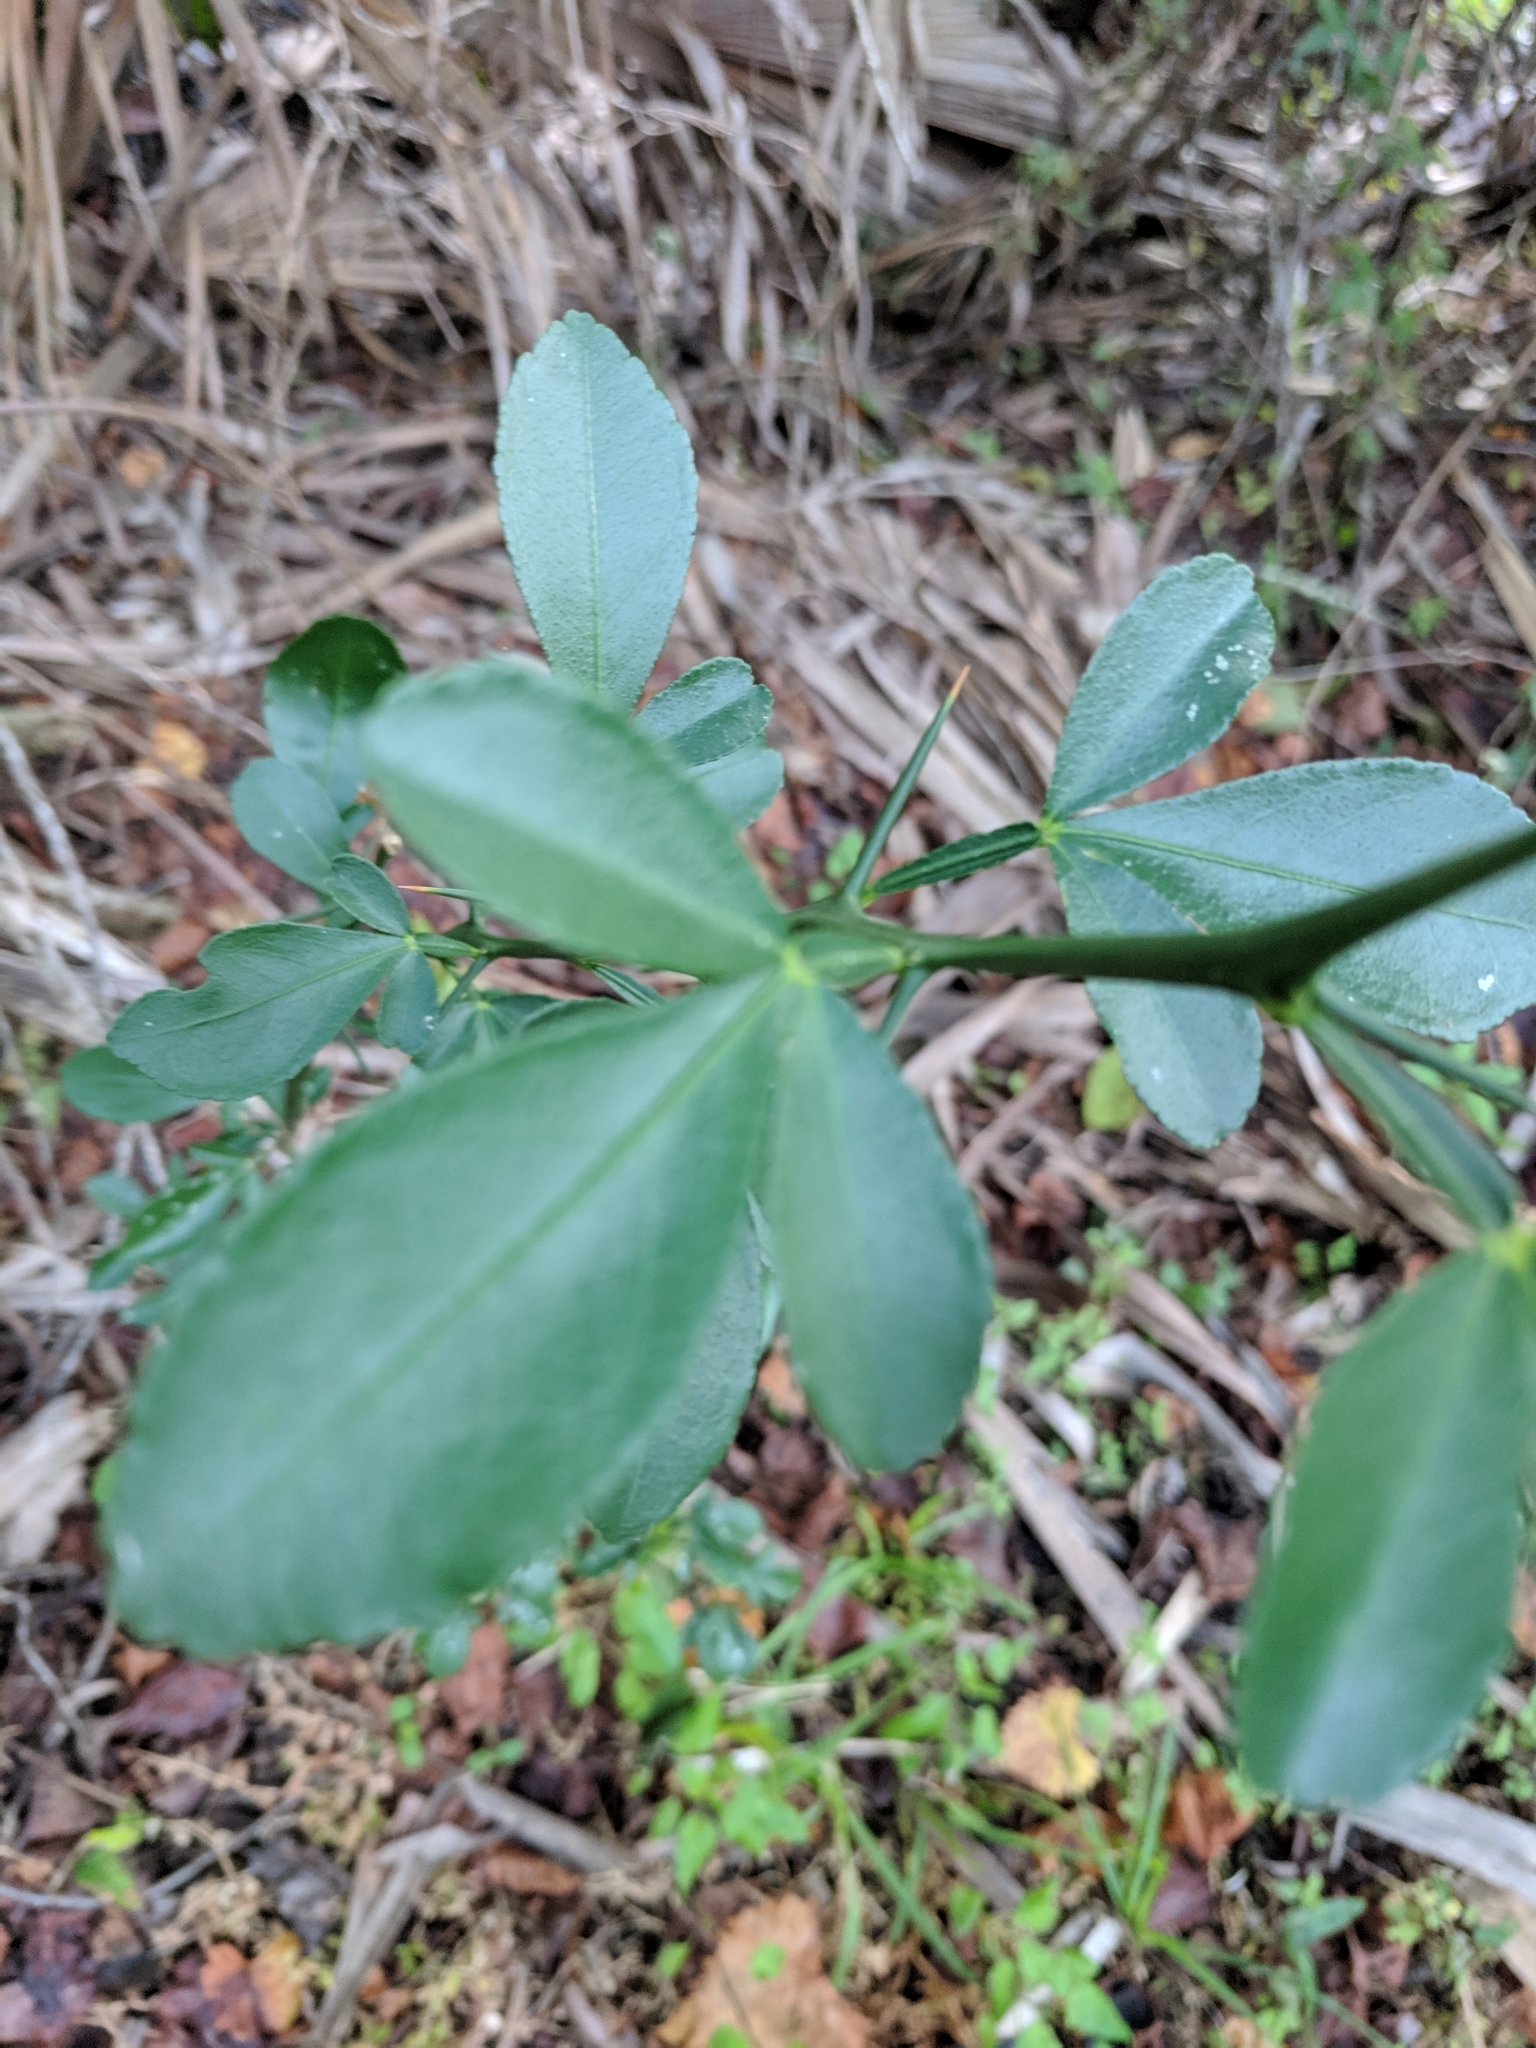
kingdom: Plantae
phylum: Tracheophyta
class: Magnoliopsida
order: Sapindales
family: Rutaceae
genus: Citrus
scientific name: Citrus trifoliata
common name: Japanese bitter-orange
